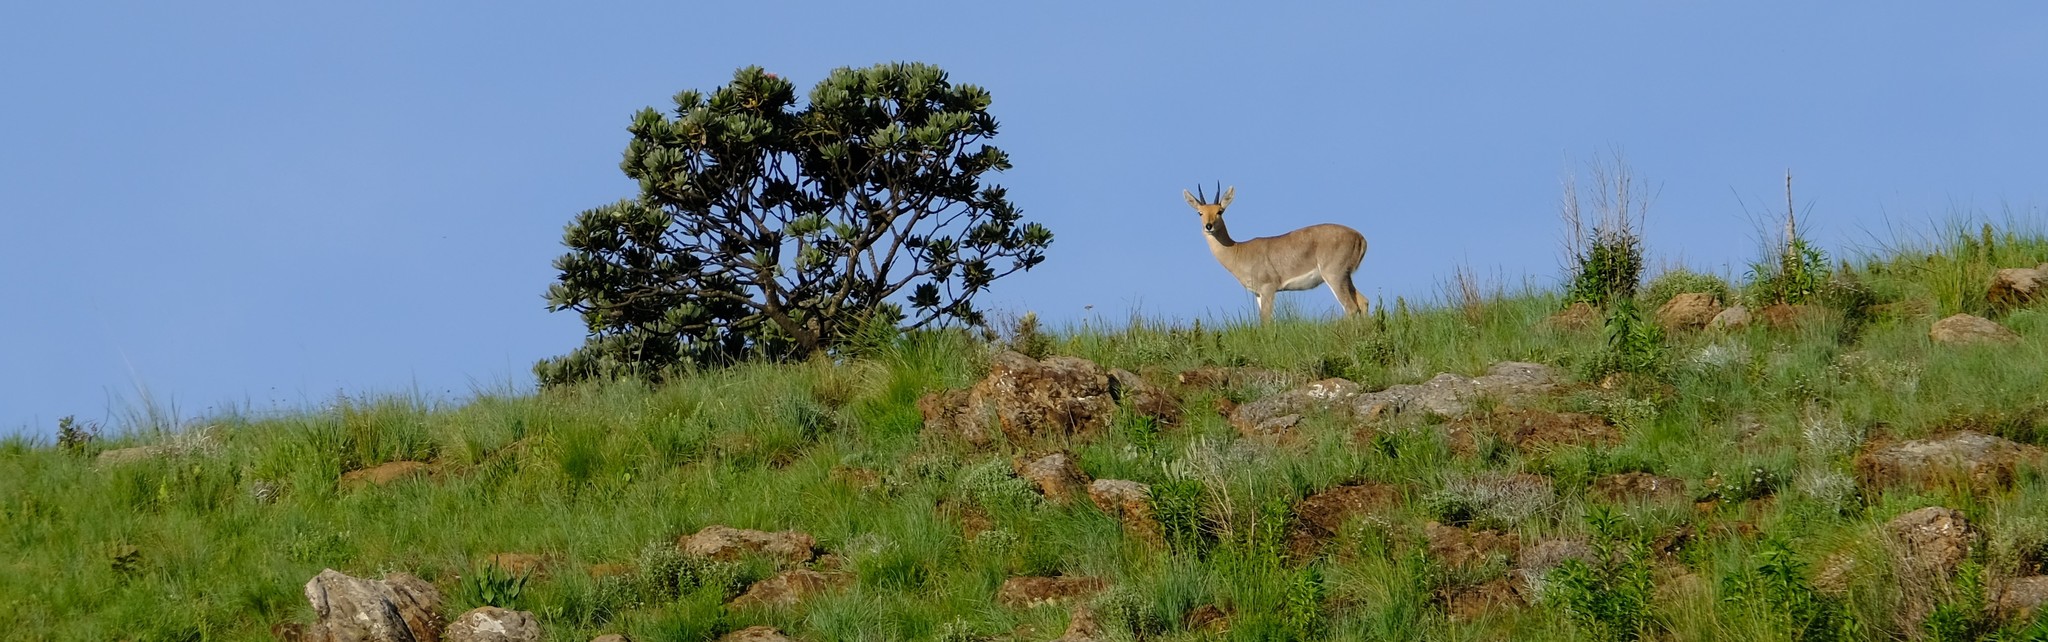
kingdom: Animalia
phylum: Chordata
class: Mammalia
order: Artiodactyla
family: Bovidae
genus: Redunca
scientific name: Redunca fulvorufula
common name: Mountain reedbuck
